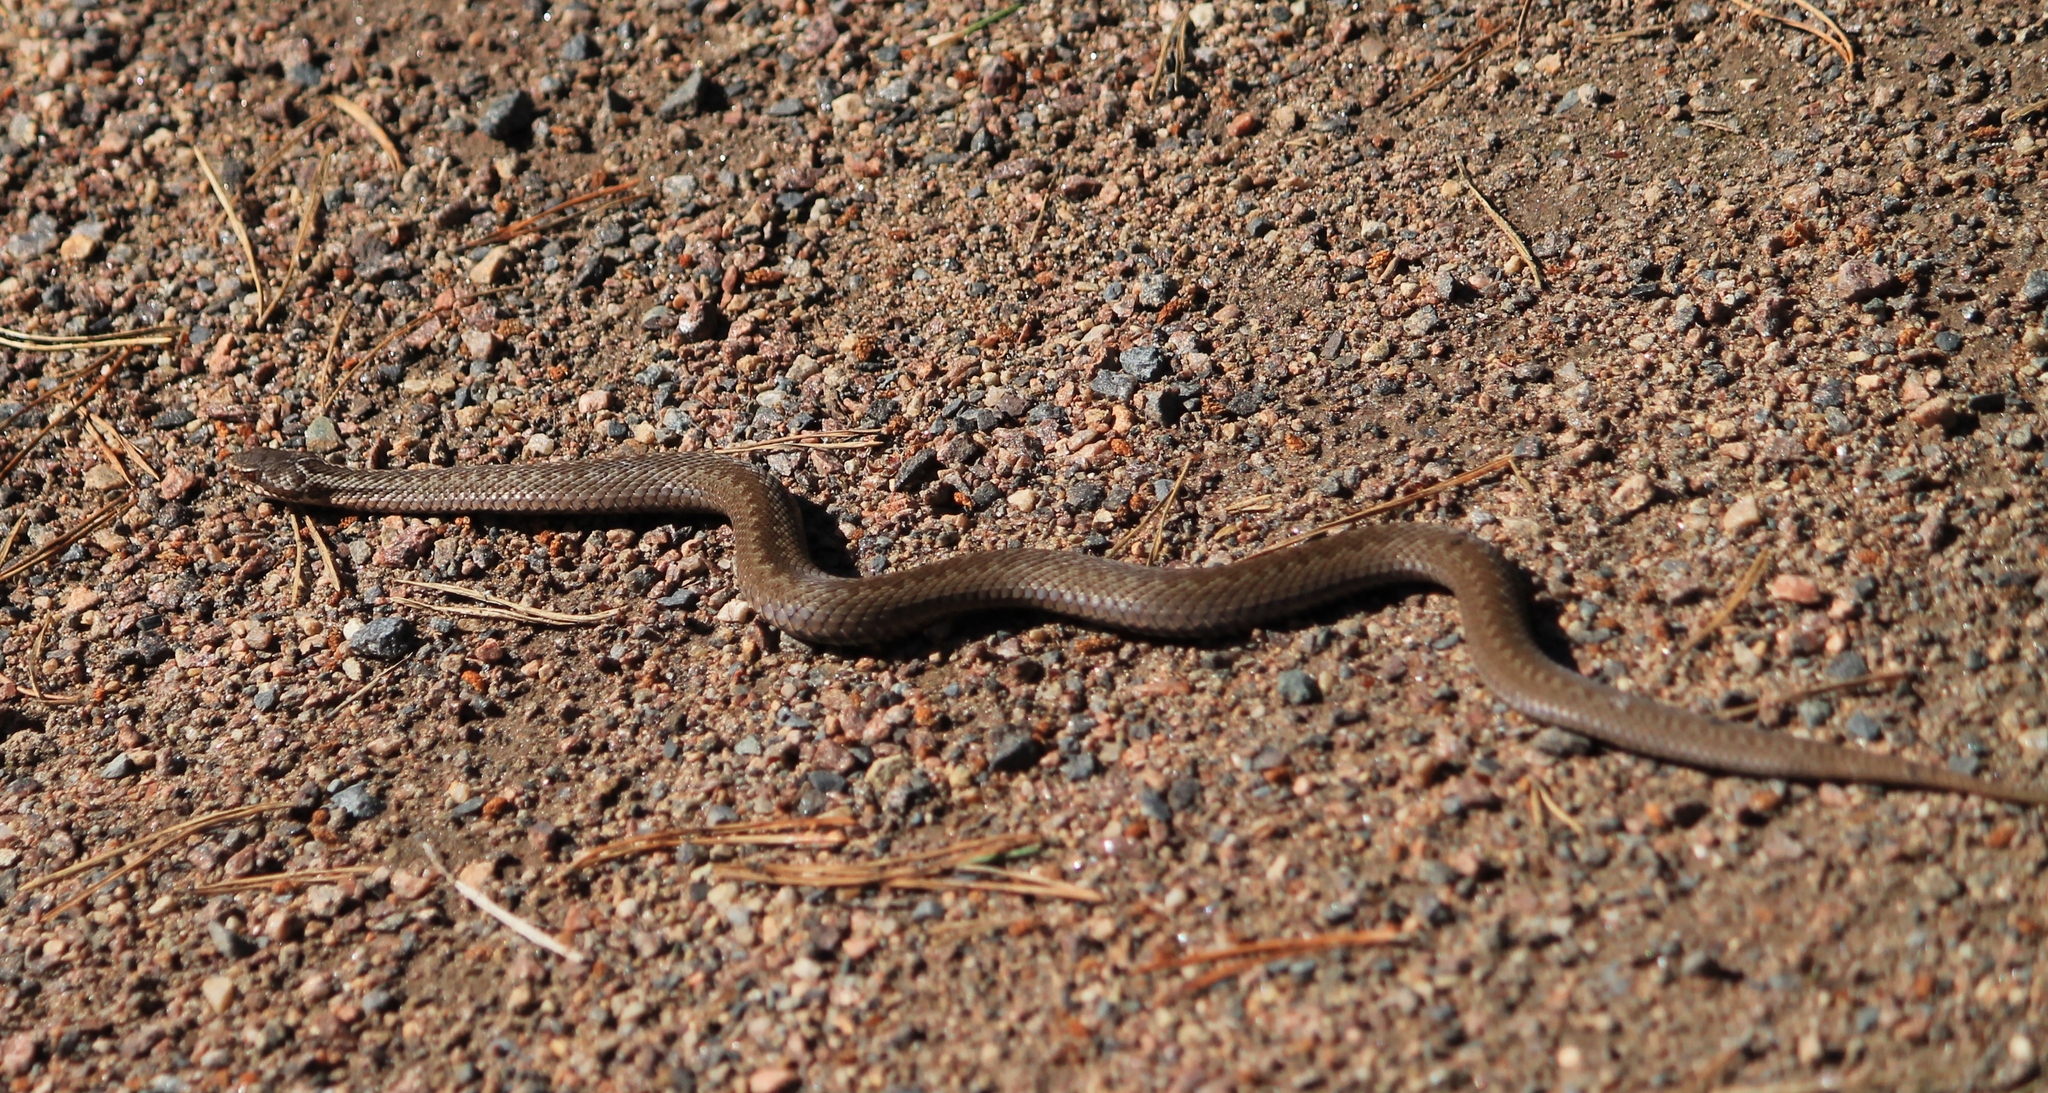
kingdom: Animalia
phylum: Chordata
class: Squamata
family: Viperidae
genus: Vipera
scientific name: Vipera berus
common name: Adder
